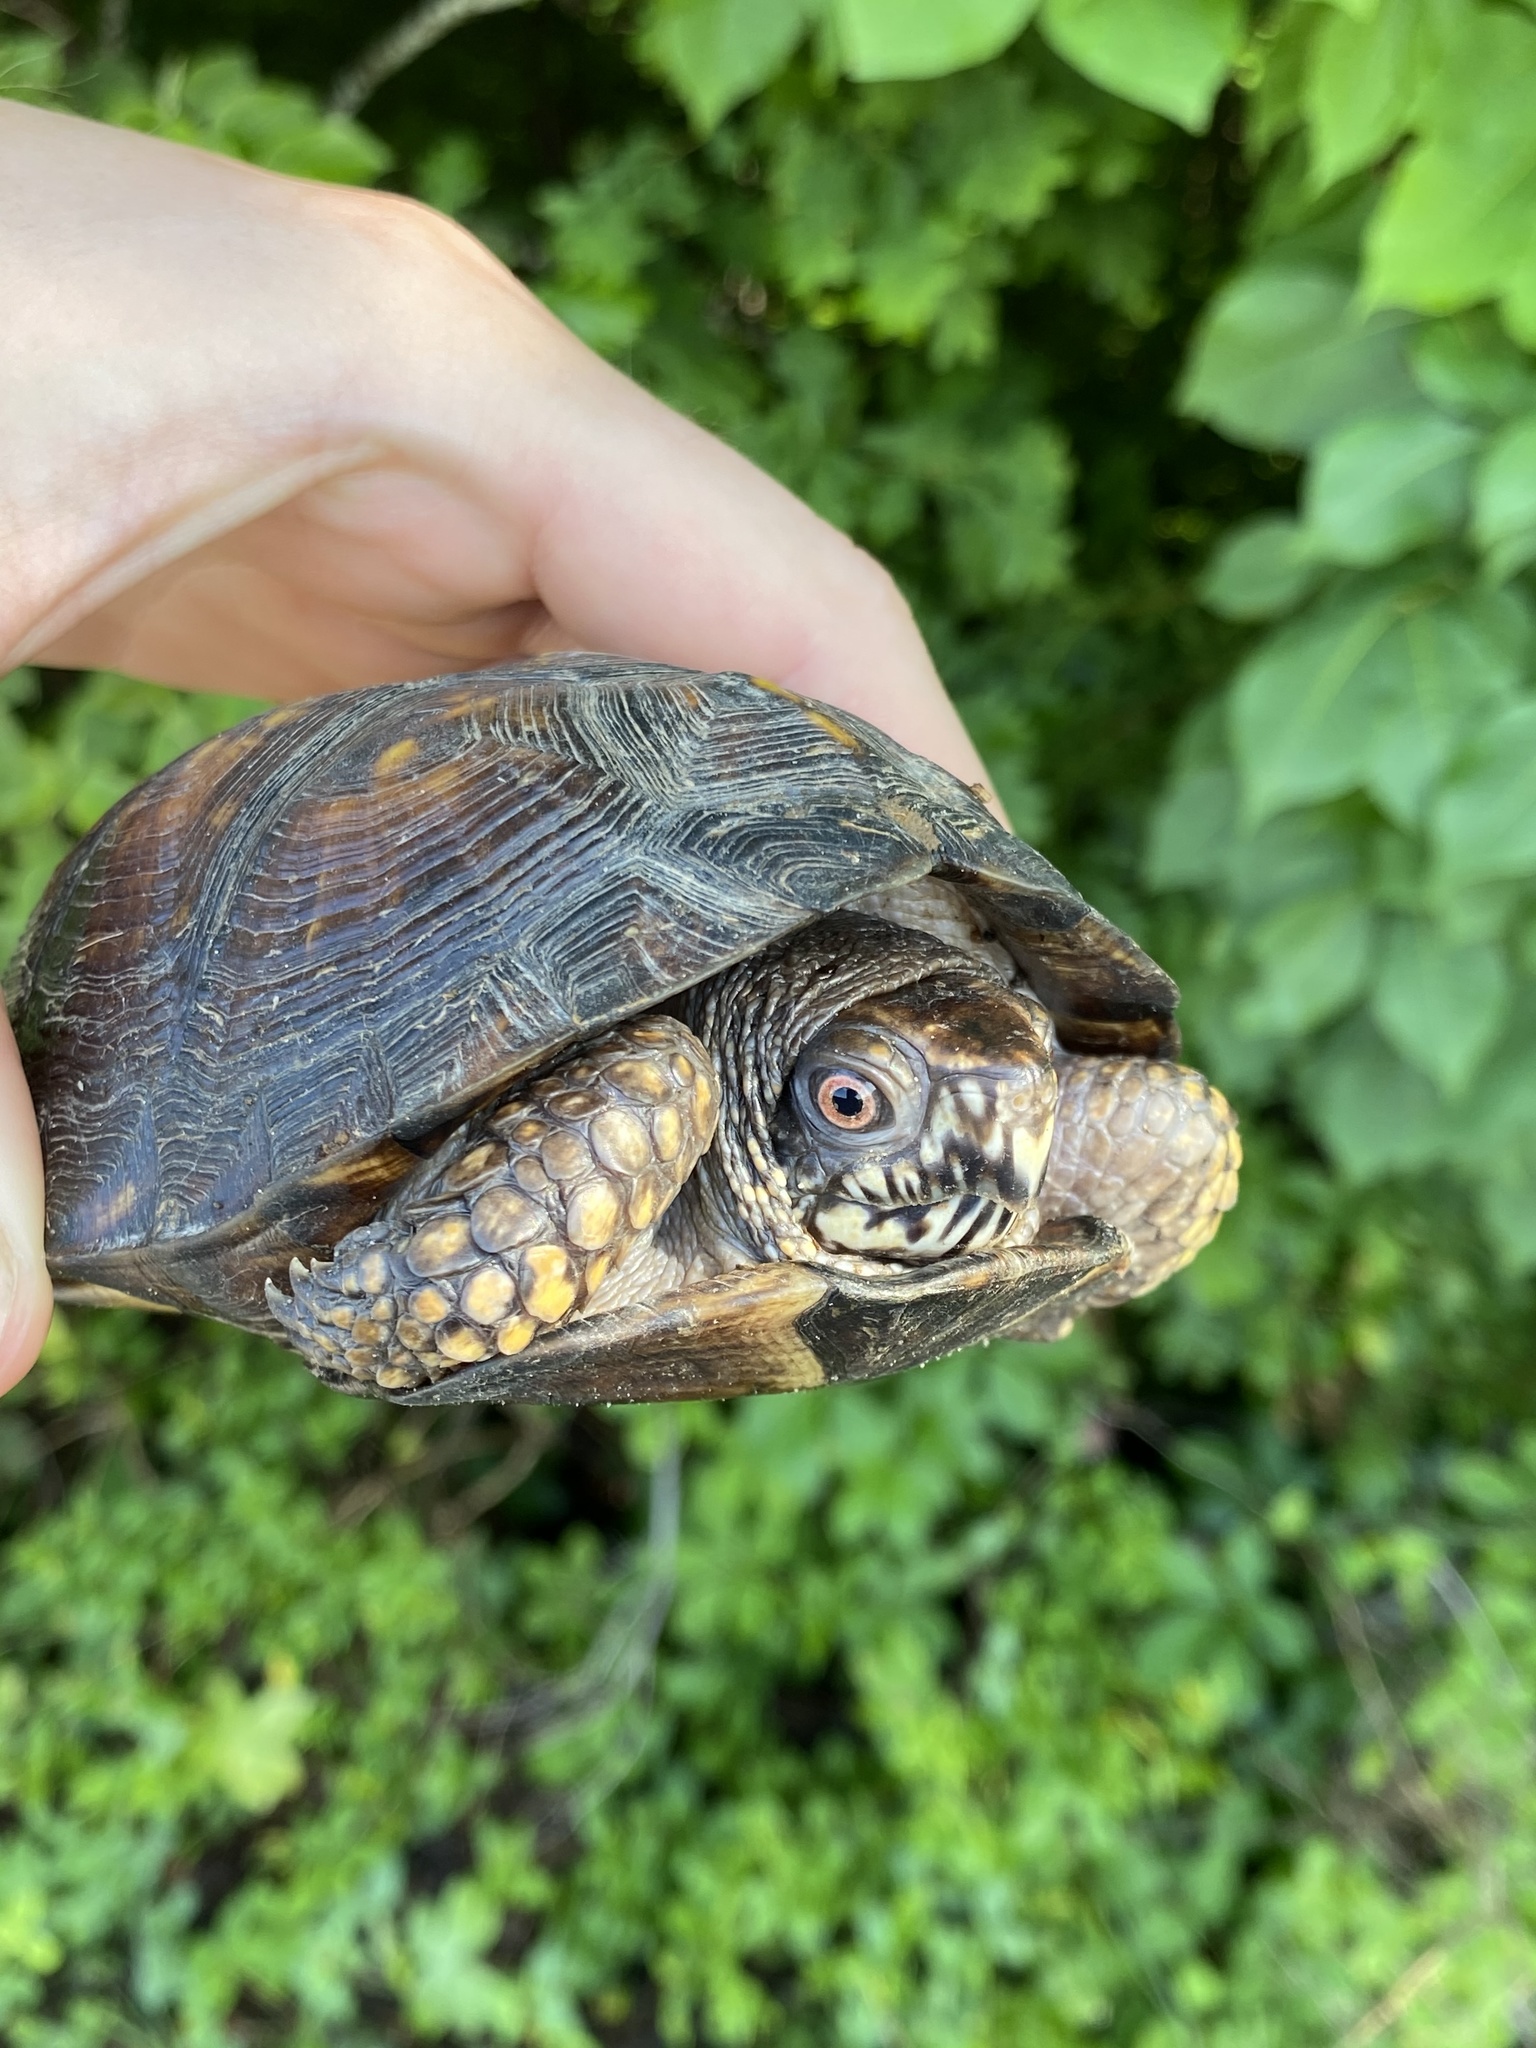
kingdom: Animalia
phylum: Chordata
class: Testudines
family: Emydidae
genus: Terrapene
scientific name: Terrapene carolina
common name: Common box turtle
